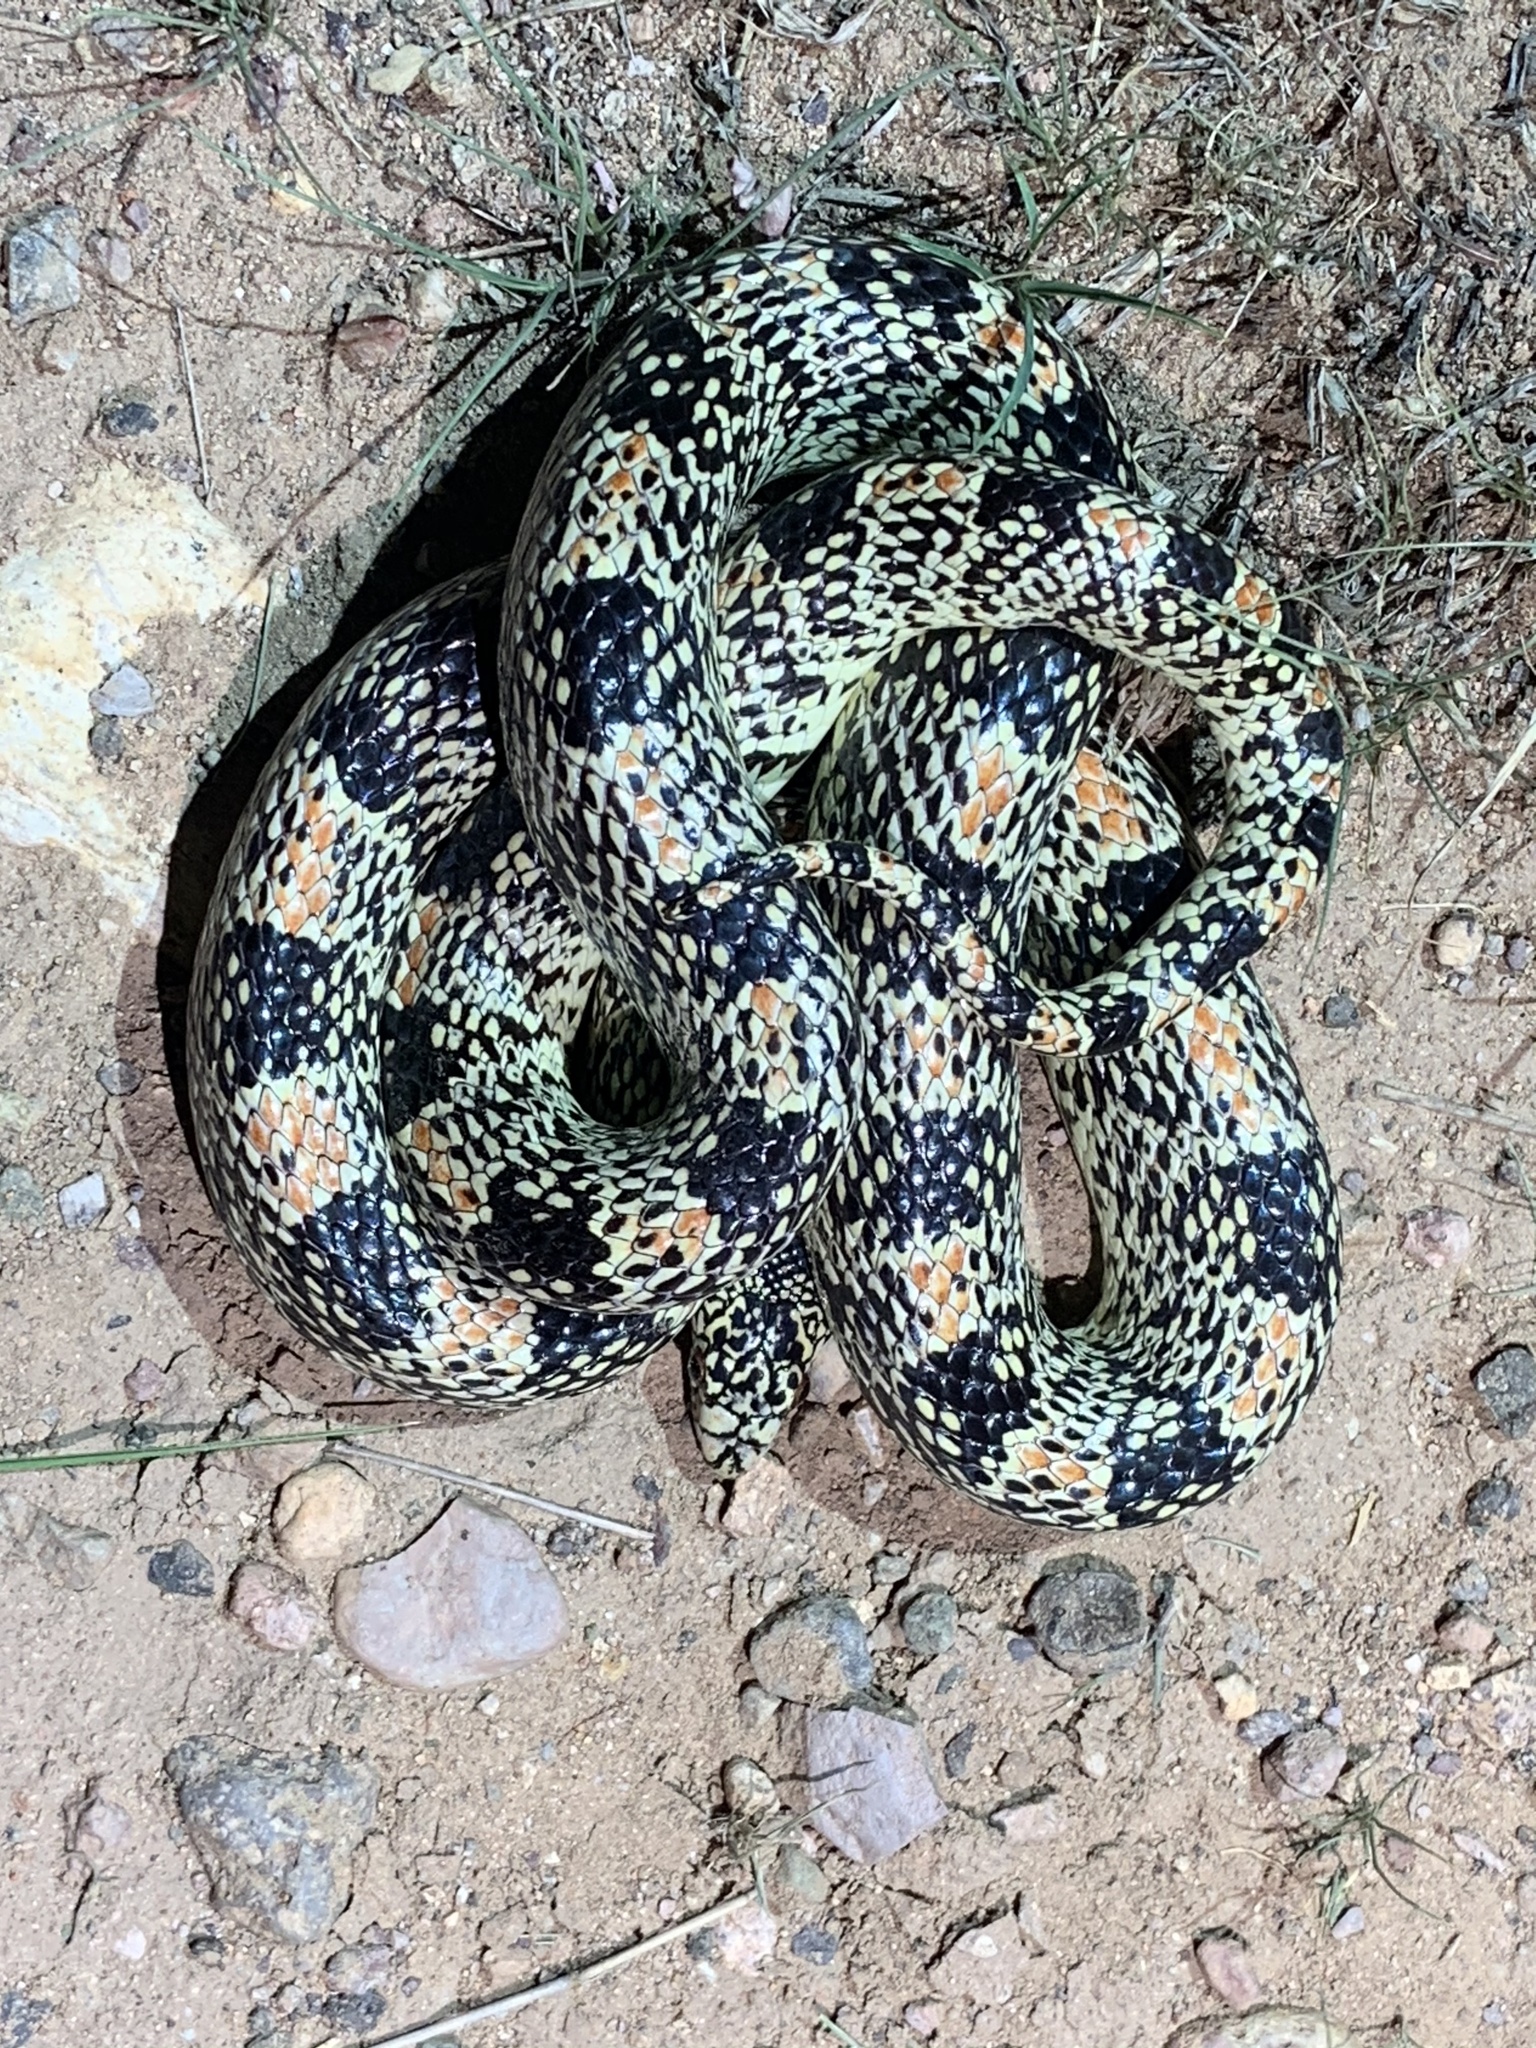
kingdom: Animalia
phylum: Chordata
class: Squamata
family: Colubridae
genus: Rhinocheilus
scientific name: Rhinocheilus lecontei
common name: Longnose snake
